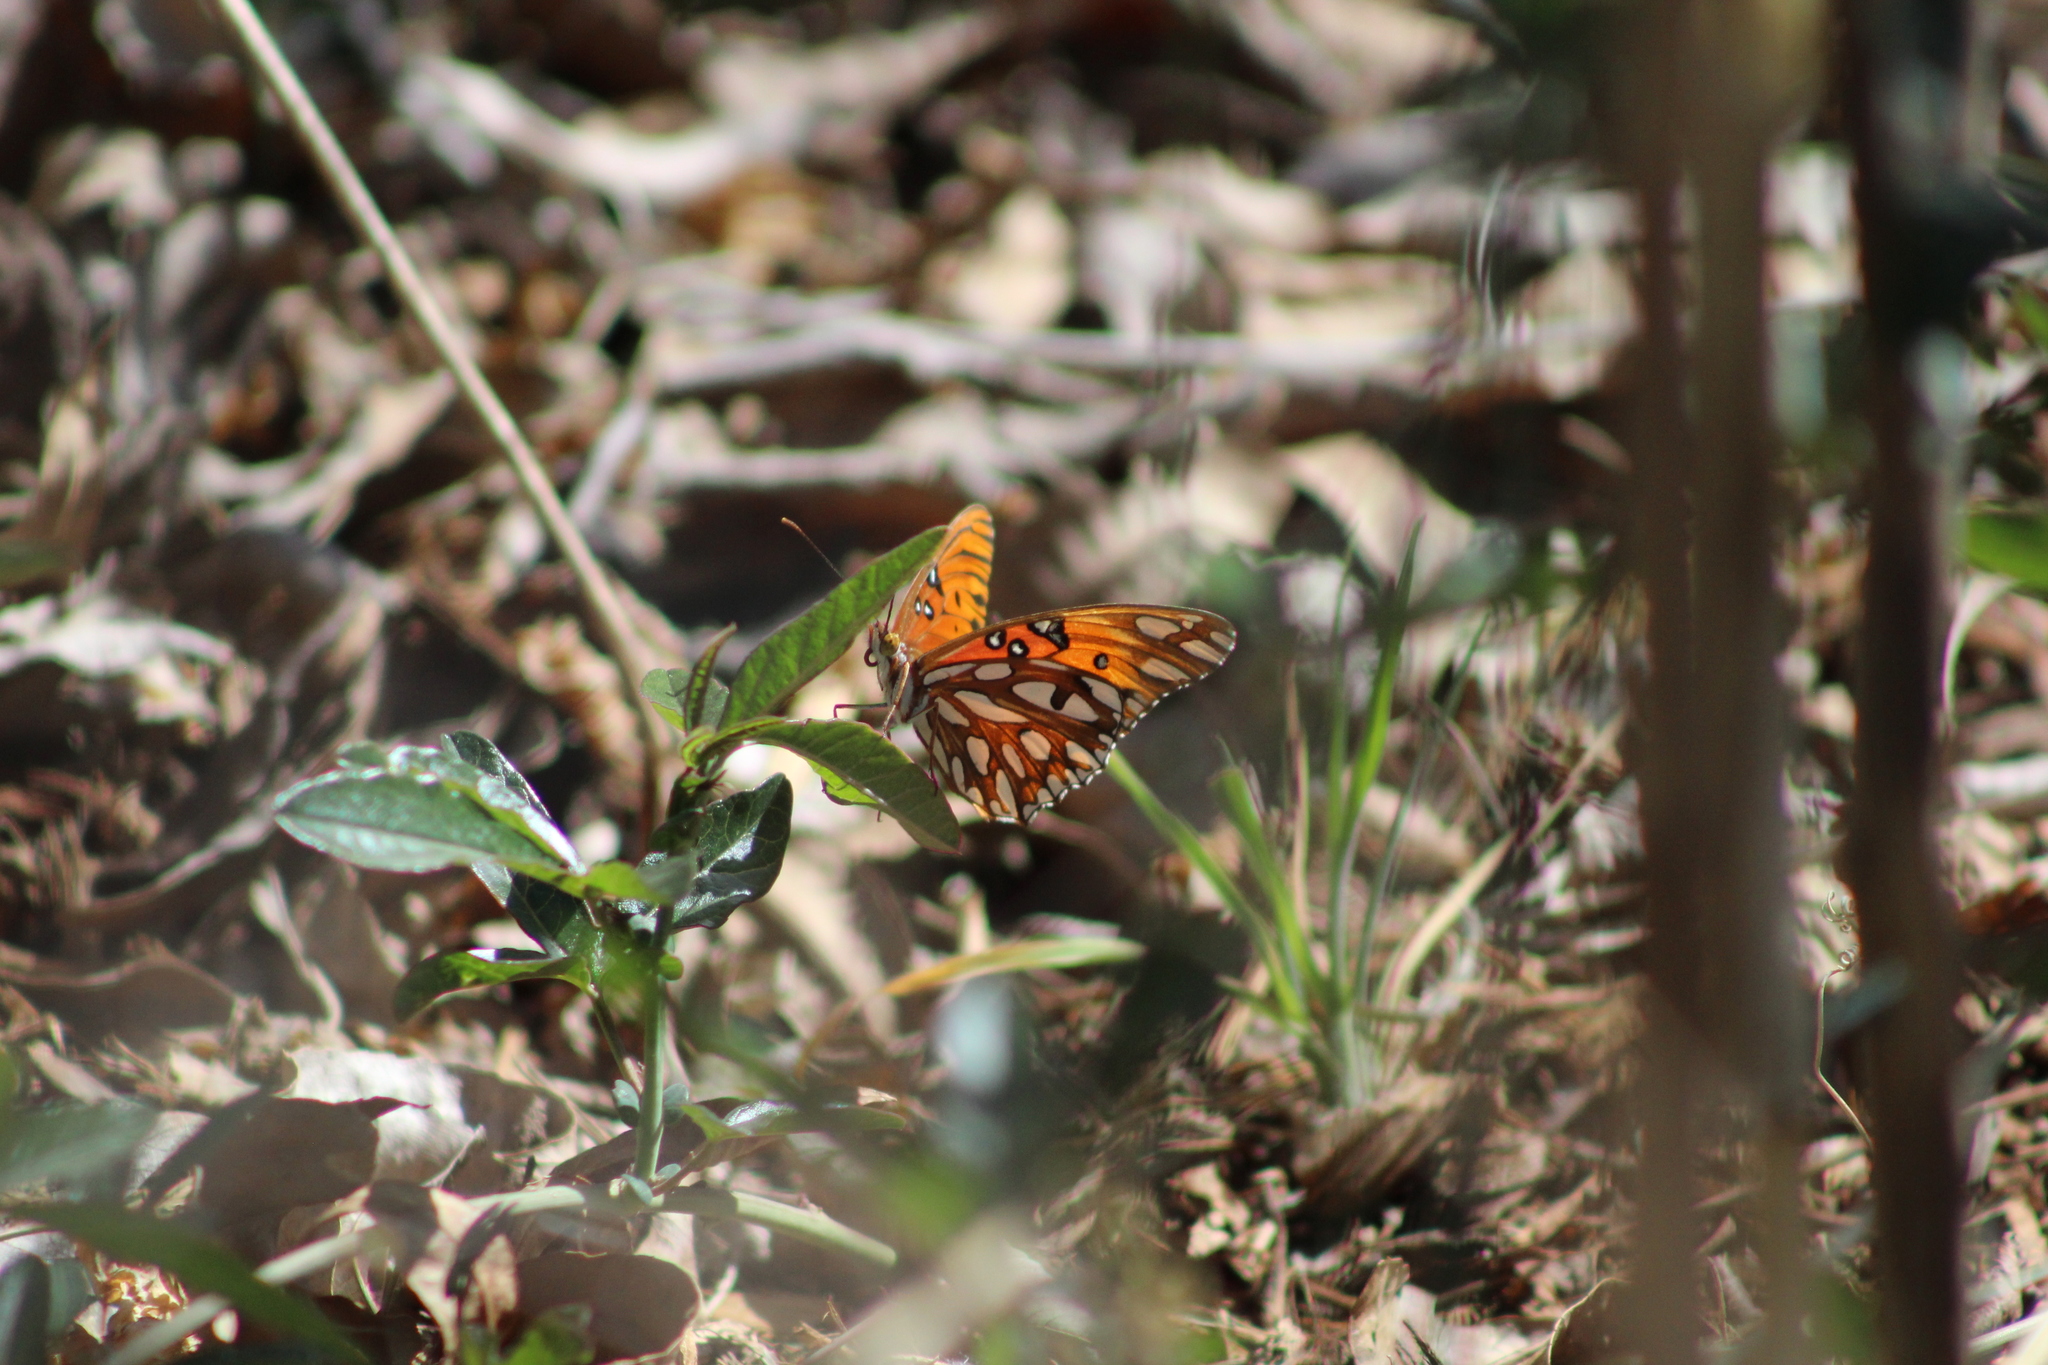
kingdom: Animalia
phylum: Arthropoda
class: Insecta
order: Lepidoptera
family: Nymphalidae
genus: Dione
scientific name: Dione vanillae
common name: Gulf fritillary
